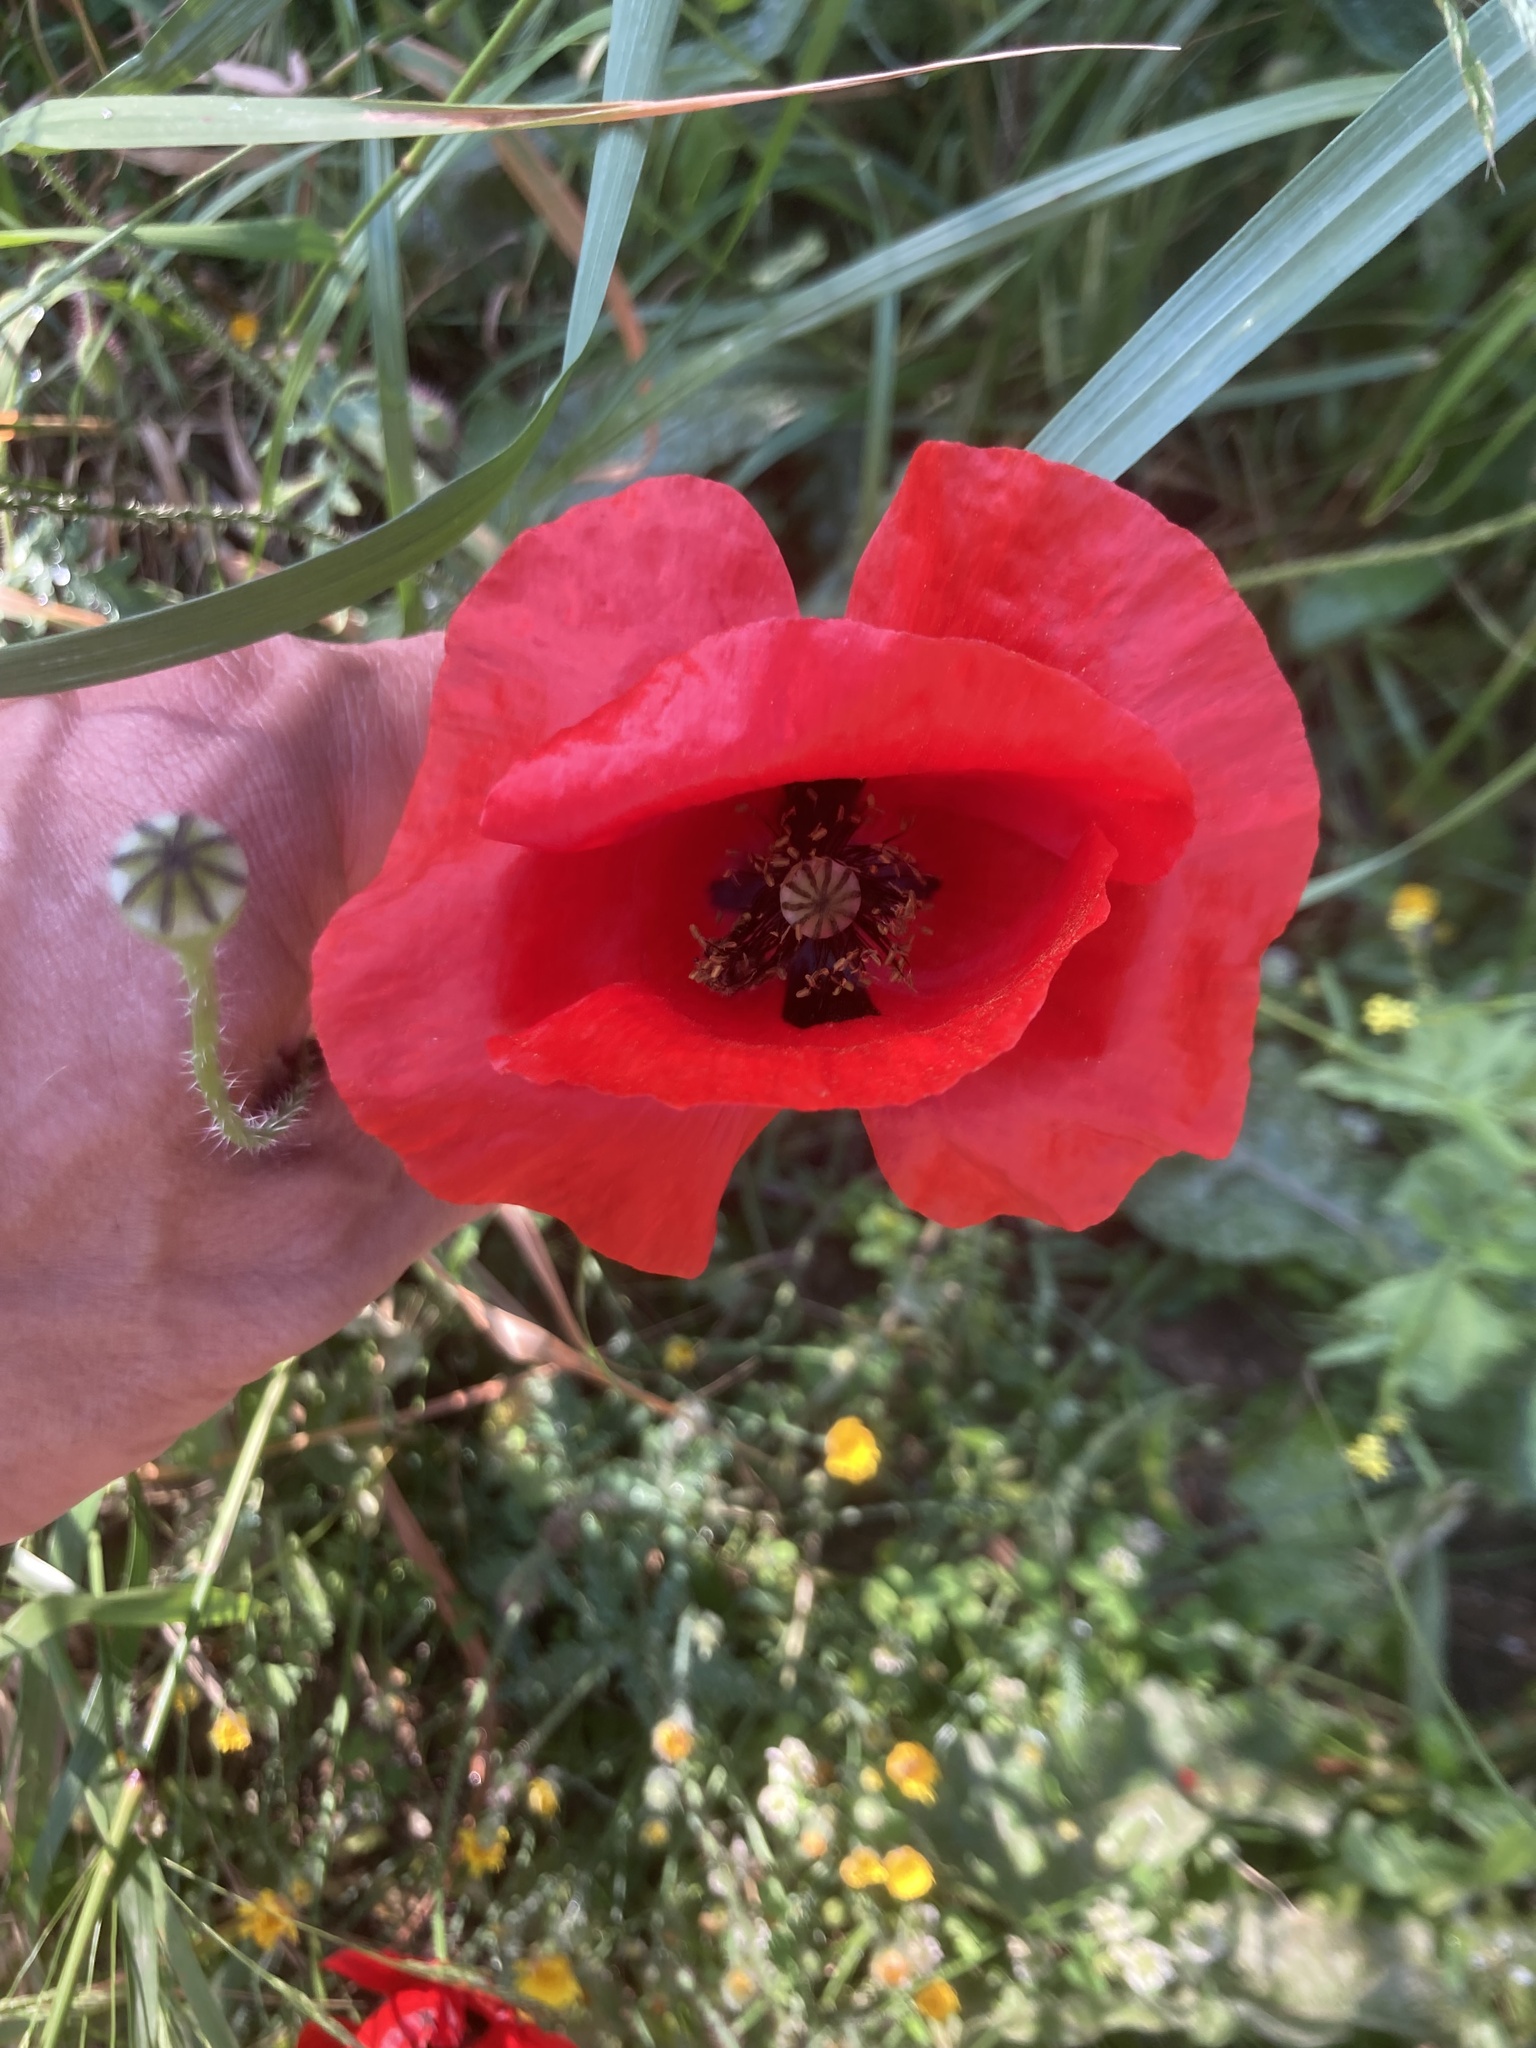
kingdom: Plantae
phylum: Tracheophyta
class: Magnoliopsida
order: Ranunculales
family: Papaveraceae
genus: Papaver
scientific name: Papaver rhoeas
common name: Corn poppy
